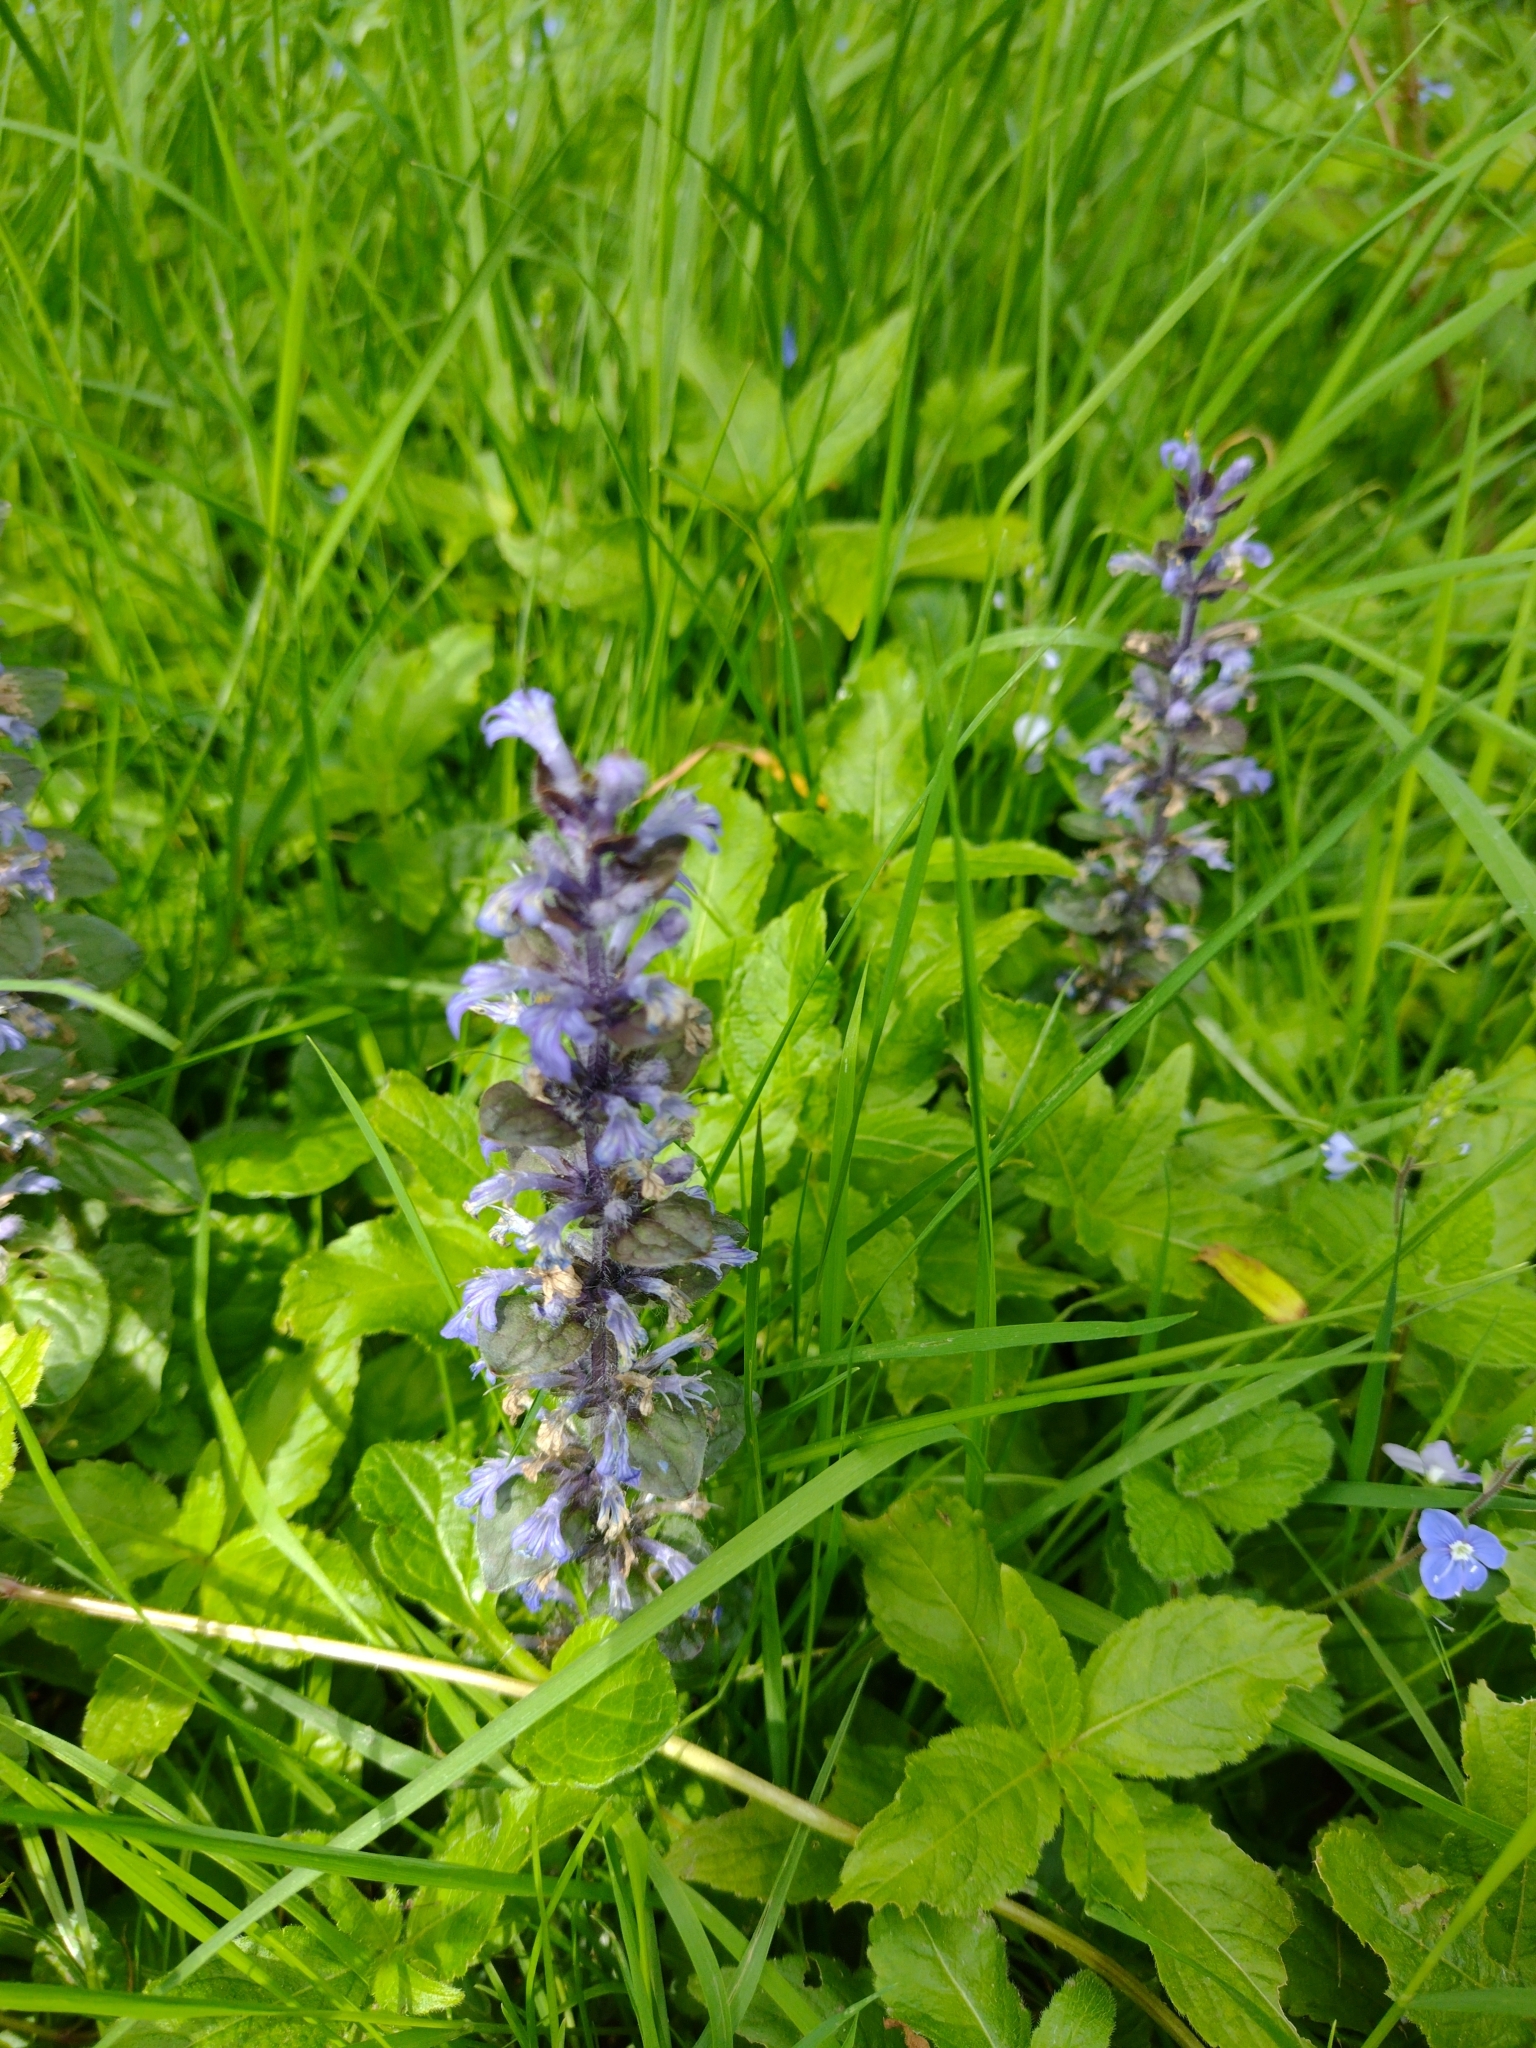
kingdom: Plantae
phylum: Tracheophyta
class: Magnoliopsida
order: Lamiales
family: Lamiaceae
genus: Ajuga
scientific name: Ajuga reptans
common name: Bugle
